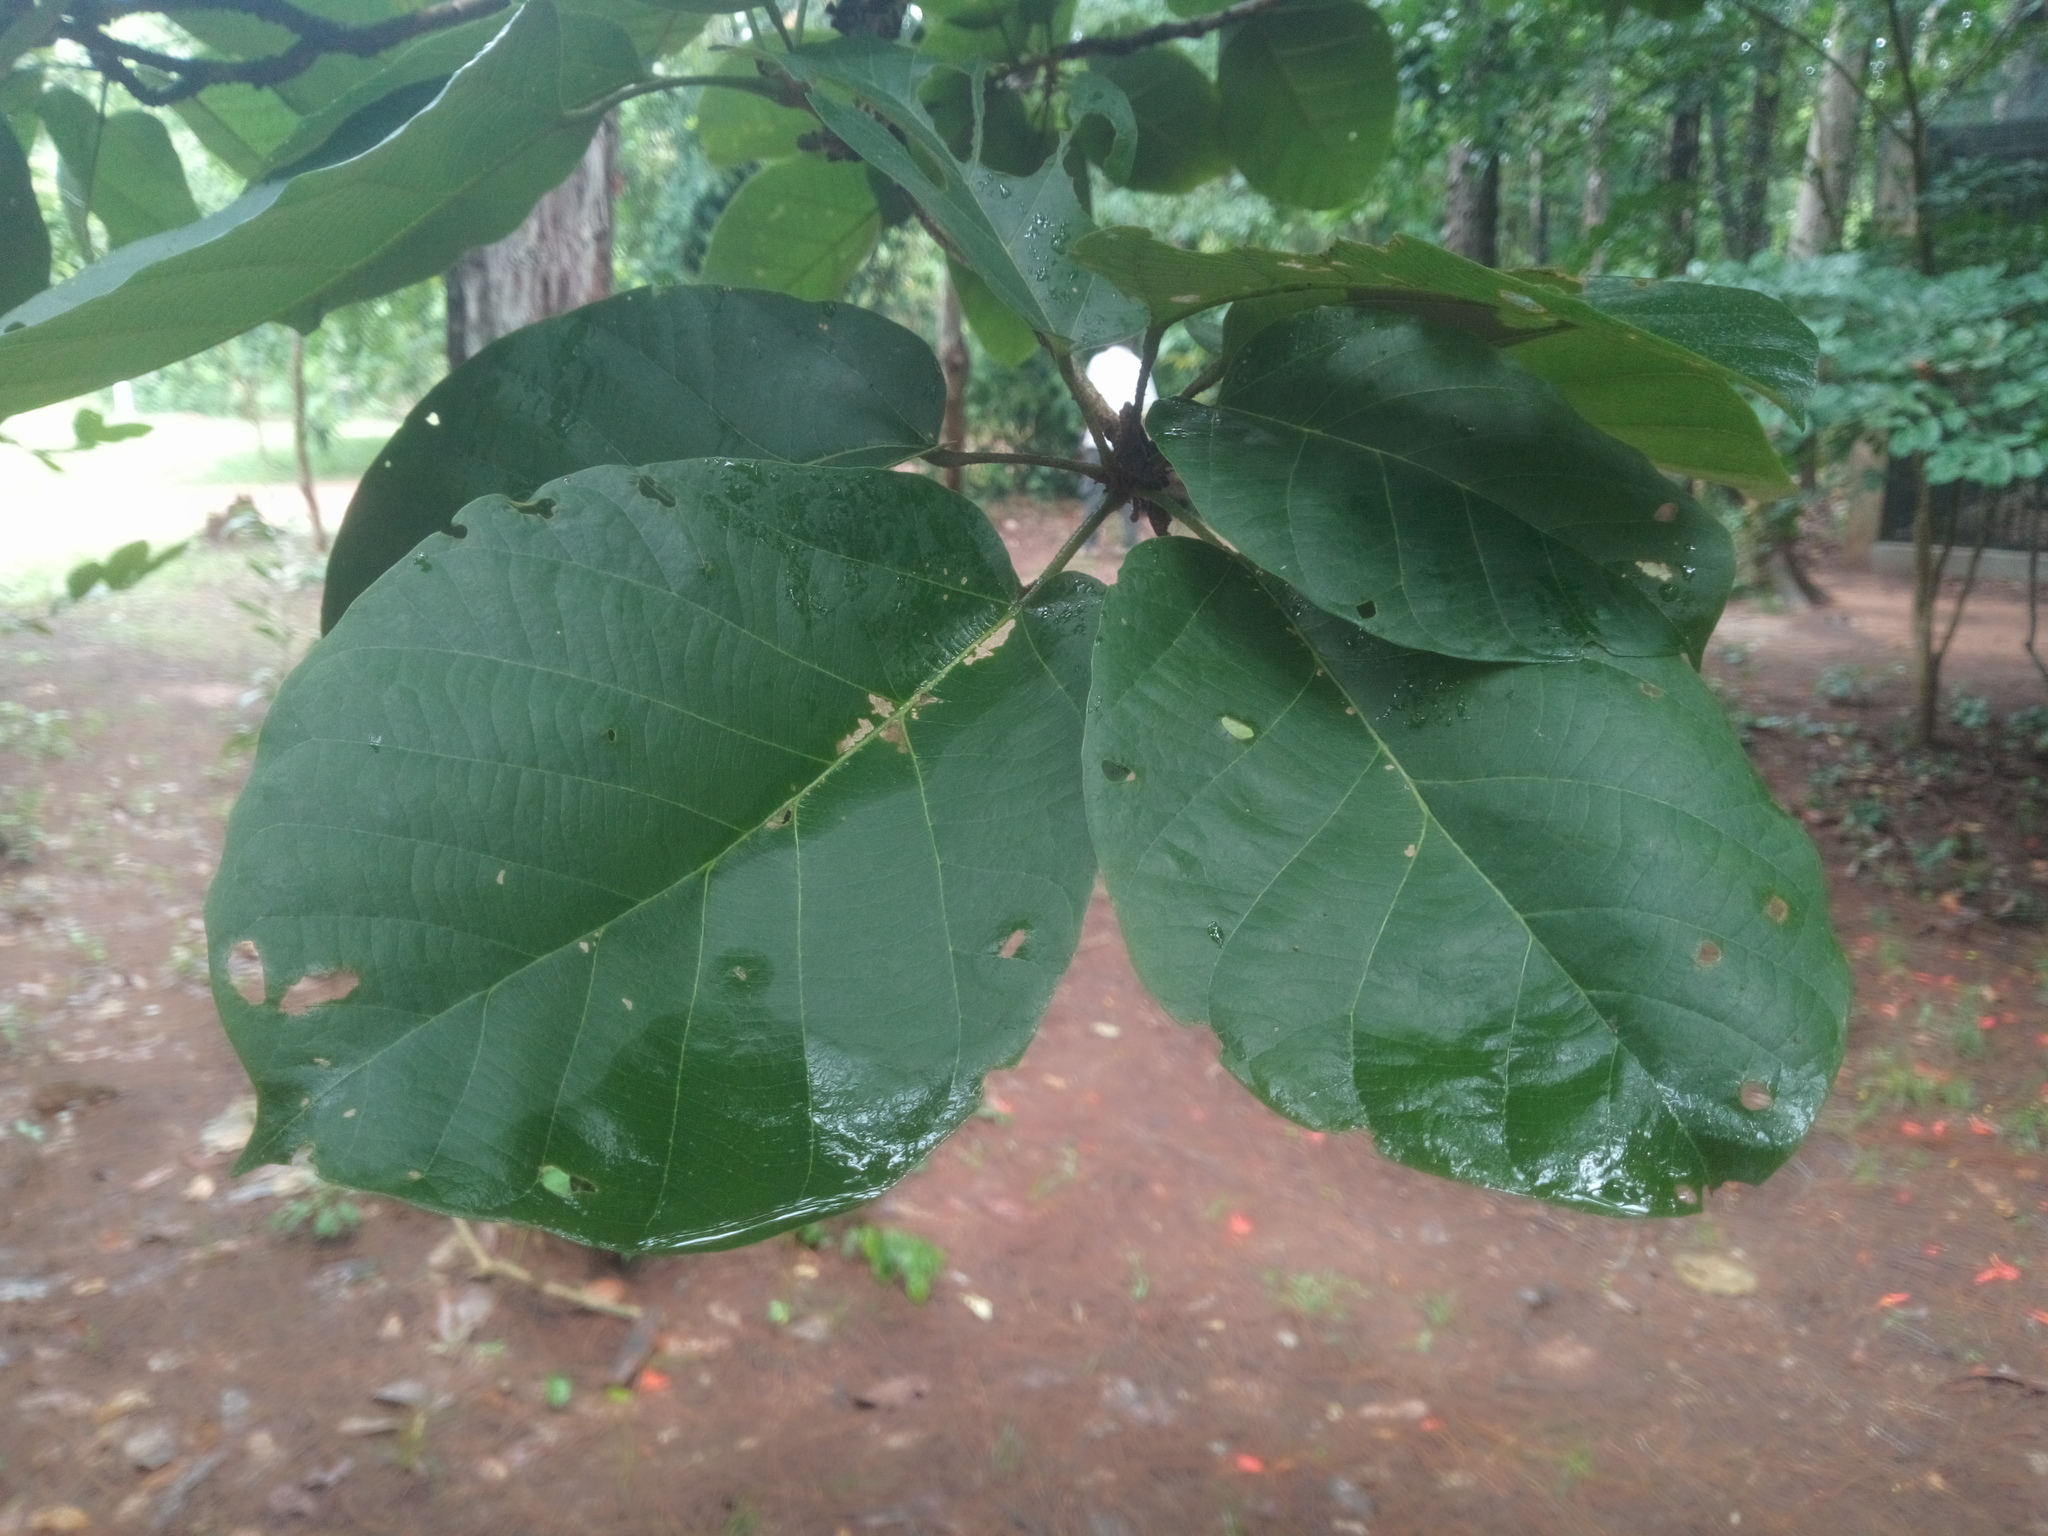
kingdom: Plantae
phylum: Tracheophyta
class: Magnoliopsida
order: Malvales
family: Malvaceae
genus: Sterculia
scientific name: Sterculia tragacantha
